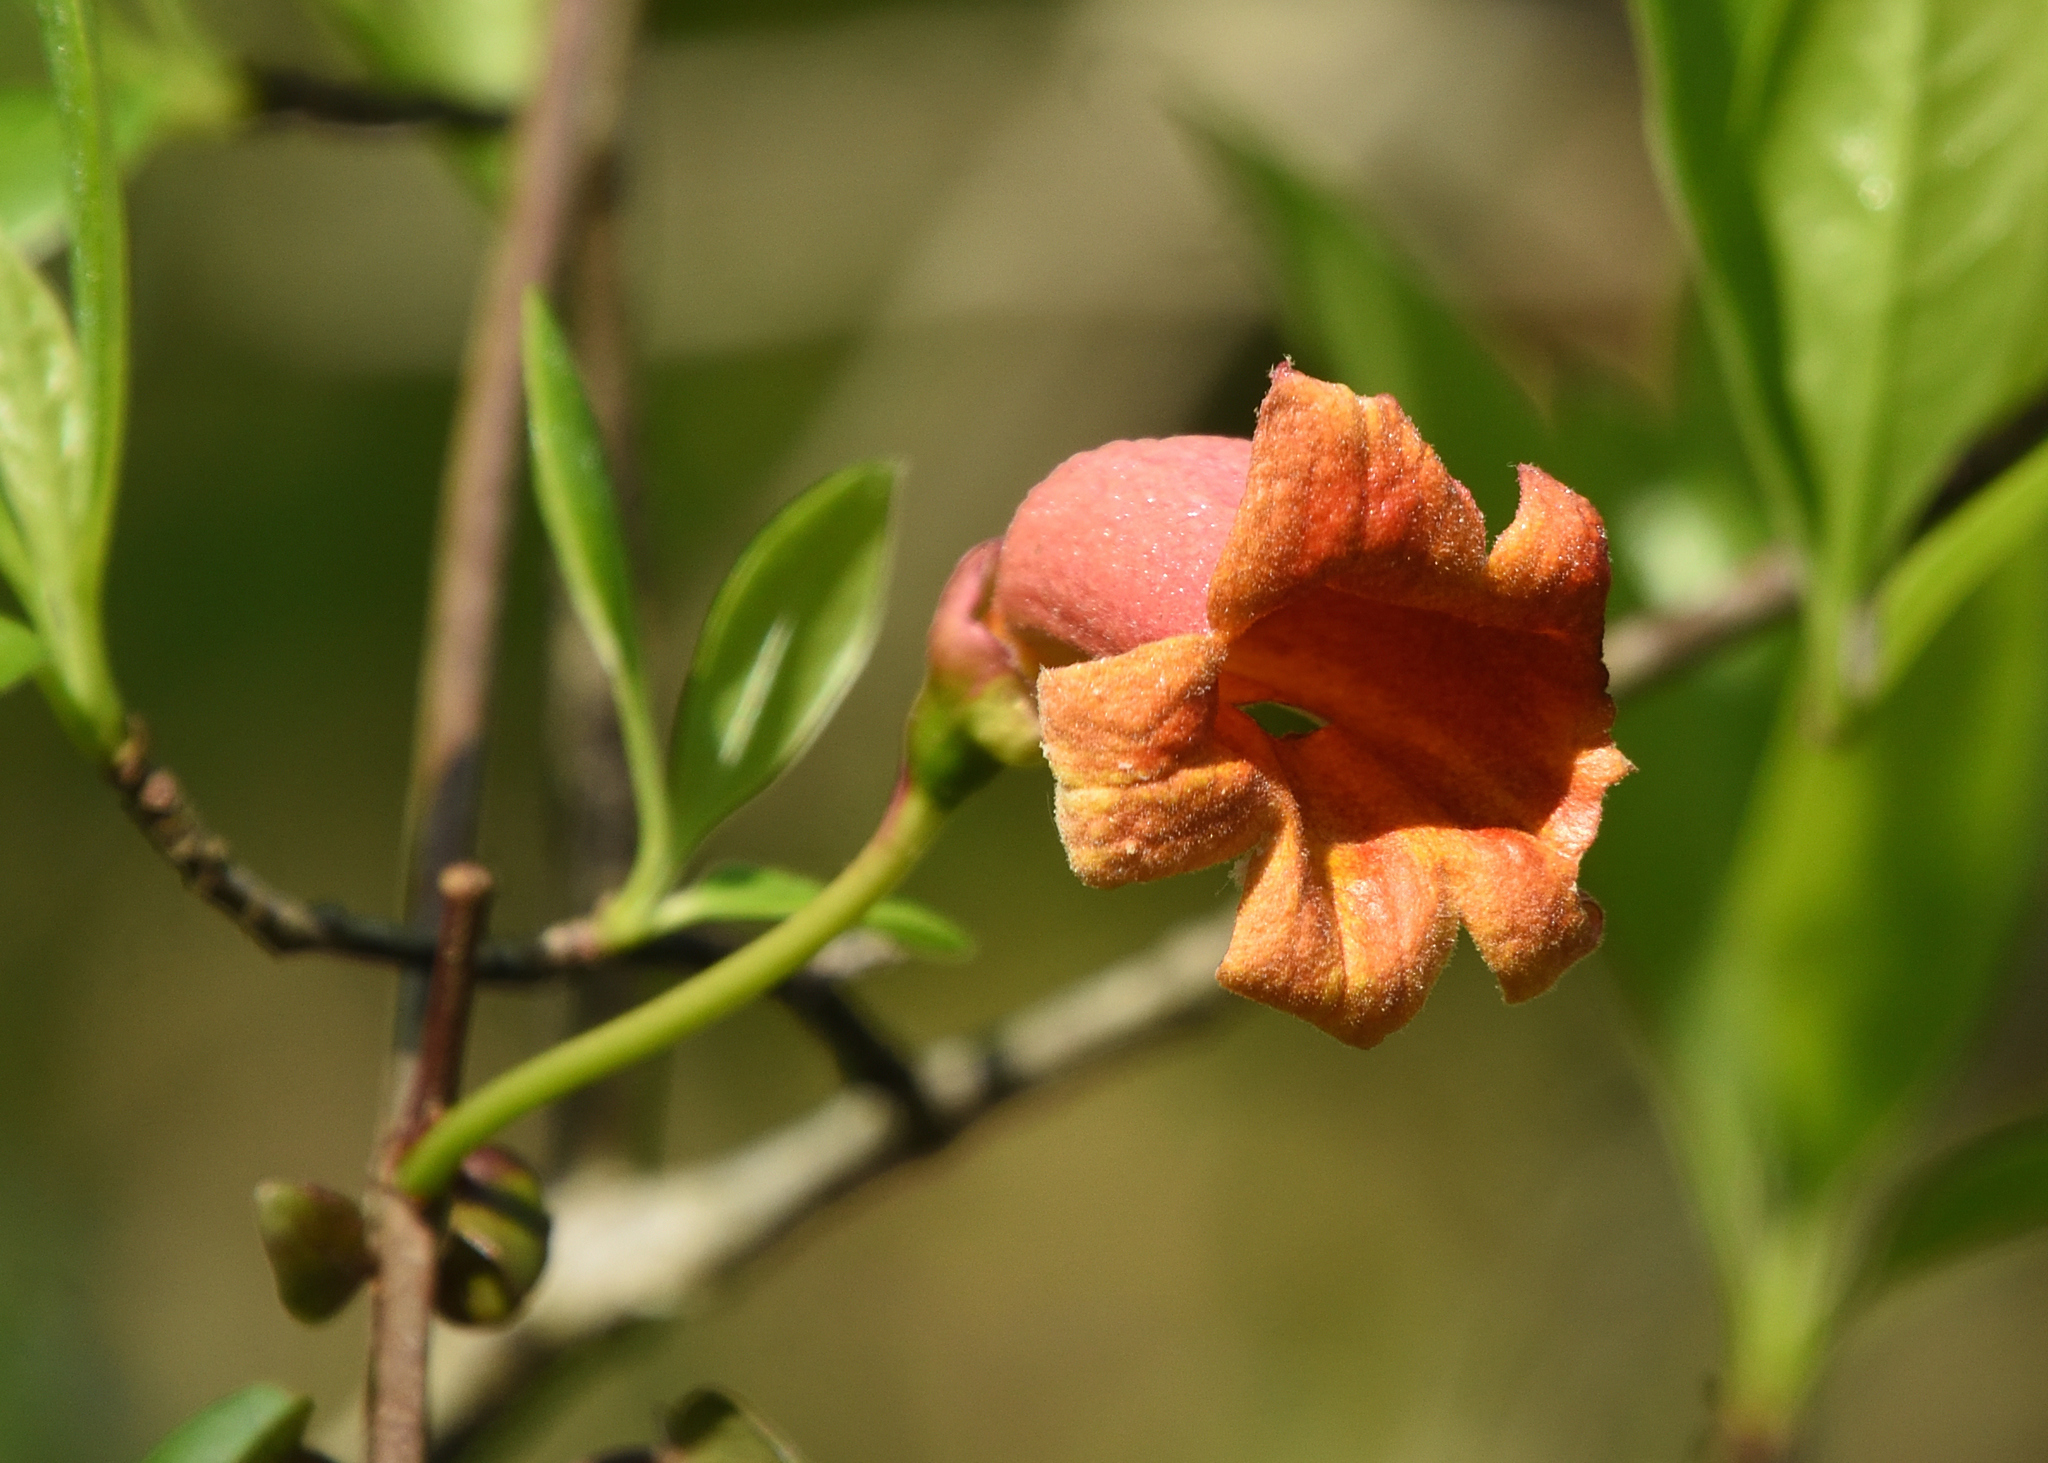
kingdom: Plantae
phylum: Tracheophyta
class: Magnoliopsida
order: Lamiales
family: Bignoniaceae
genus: Bignonia
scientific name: Bignonia capreolata
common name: Crossvine
